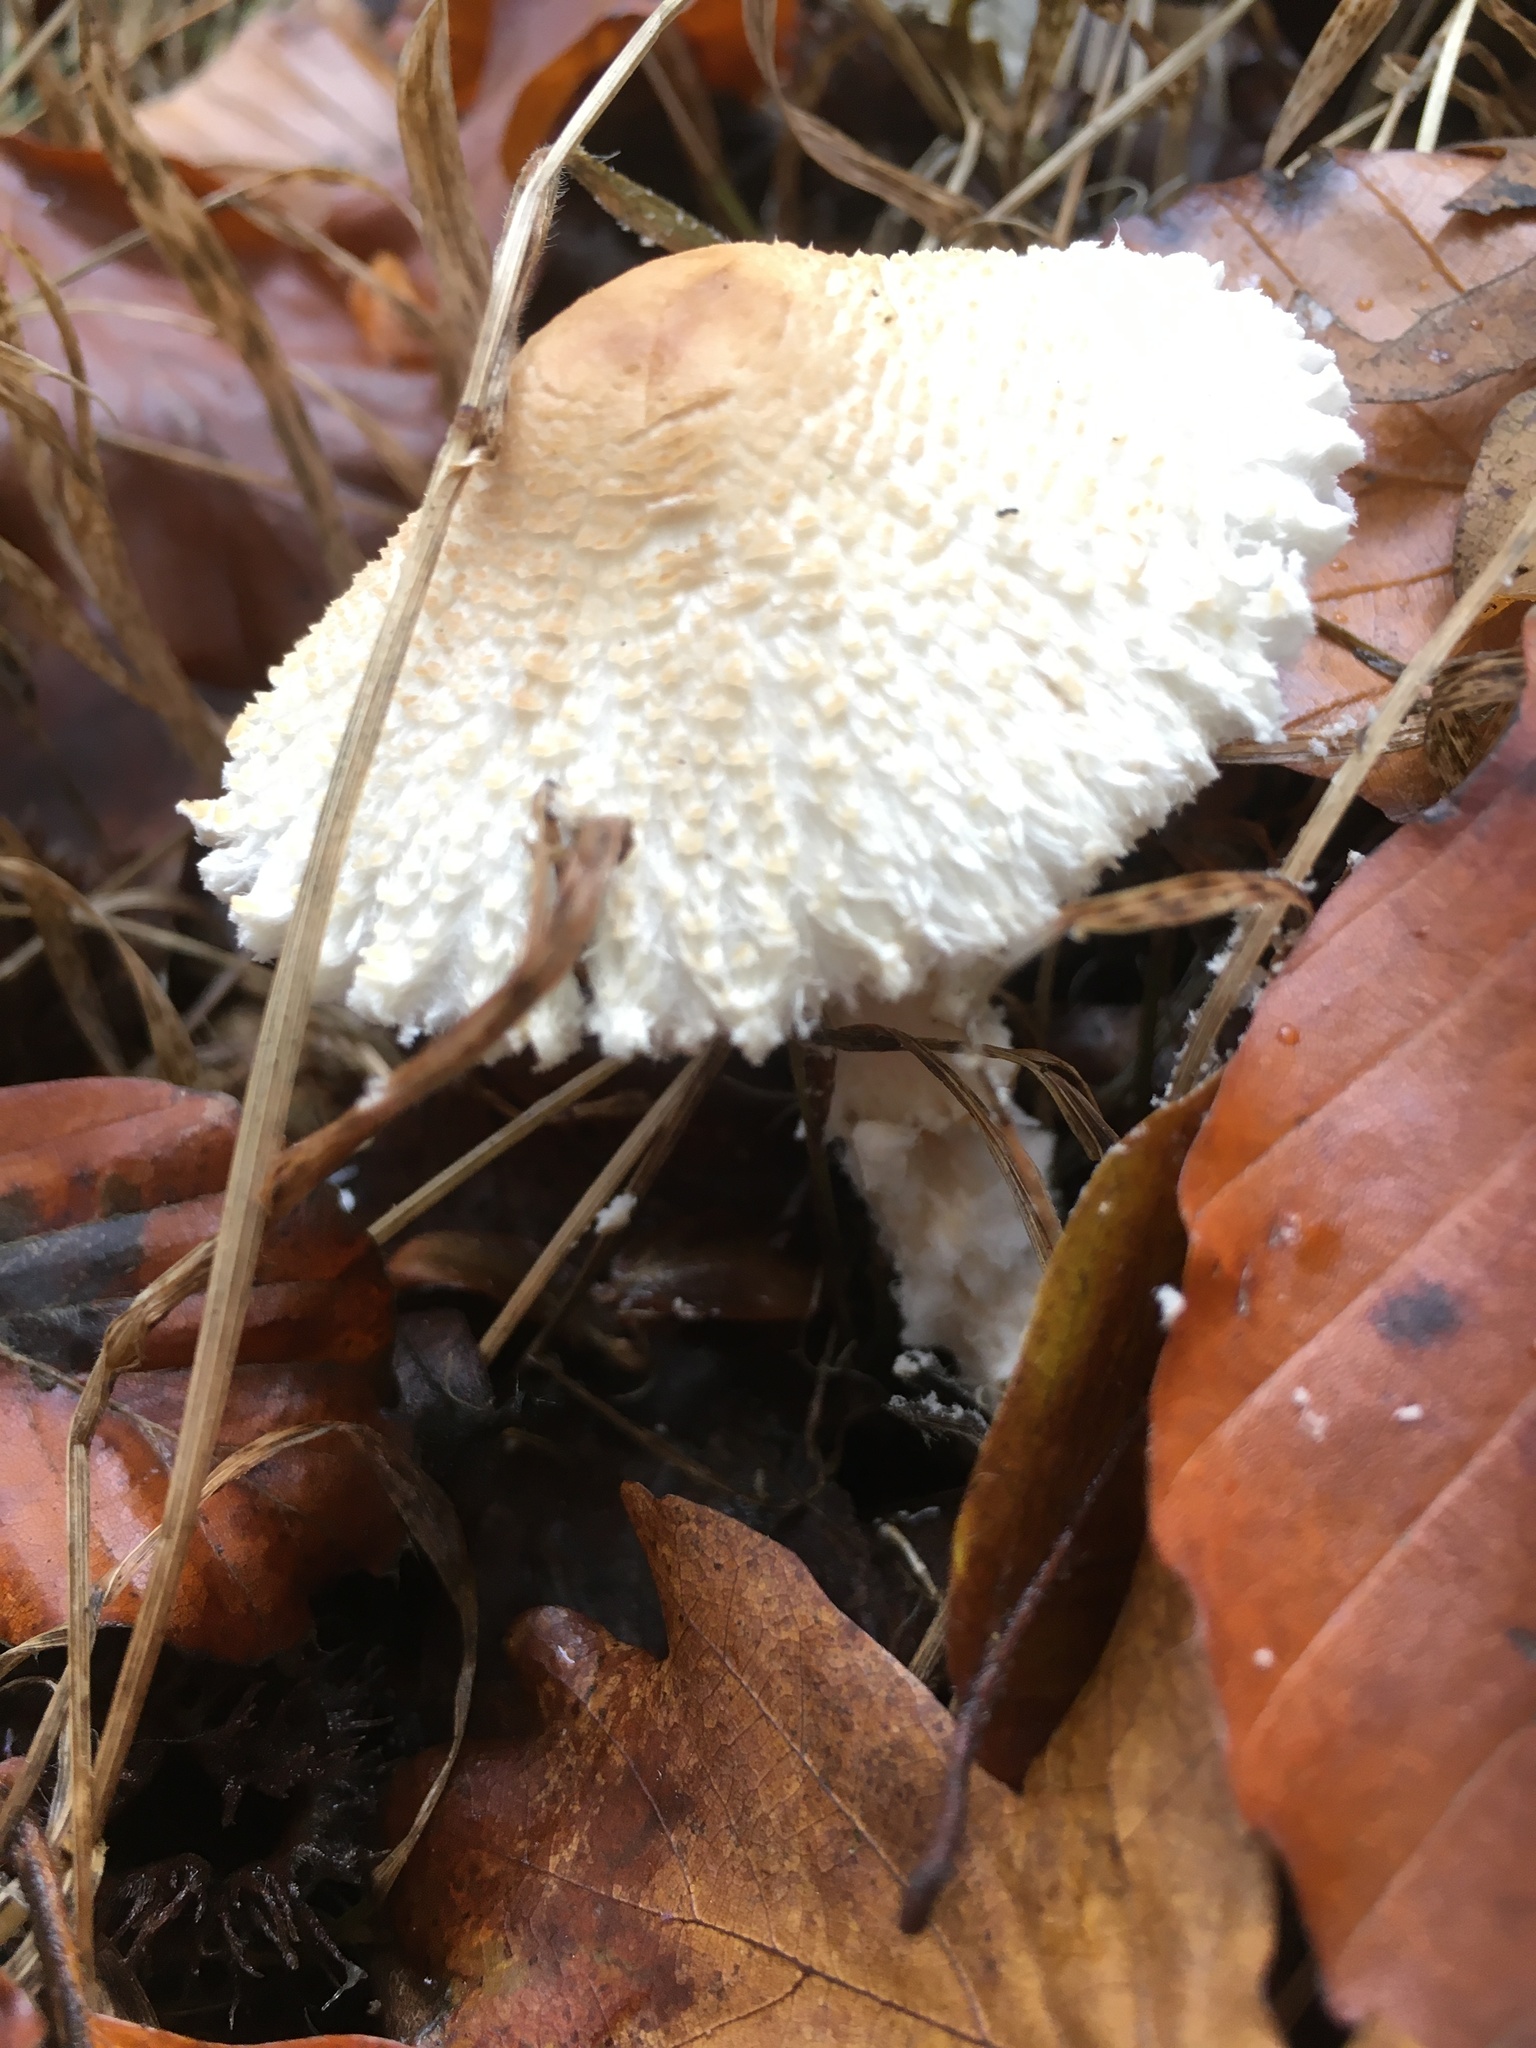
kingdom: Fungi
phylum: Basidiomycota
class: Agaricomycetes
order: Agaricales
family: Agaricaceae
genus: Lepiota
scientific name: Lepiota clypeolaria
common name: Shield dapperling
